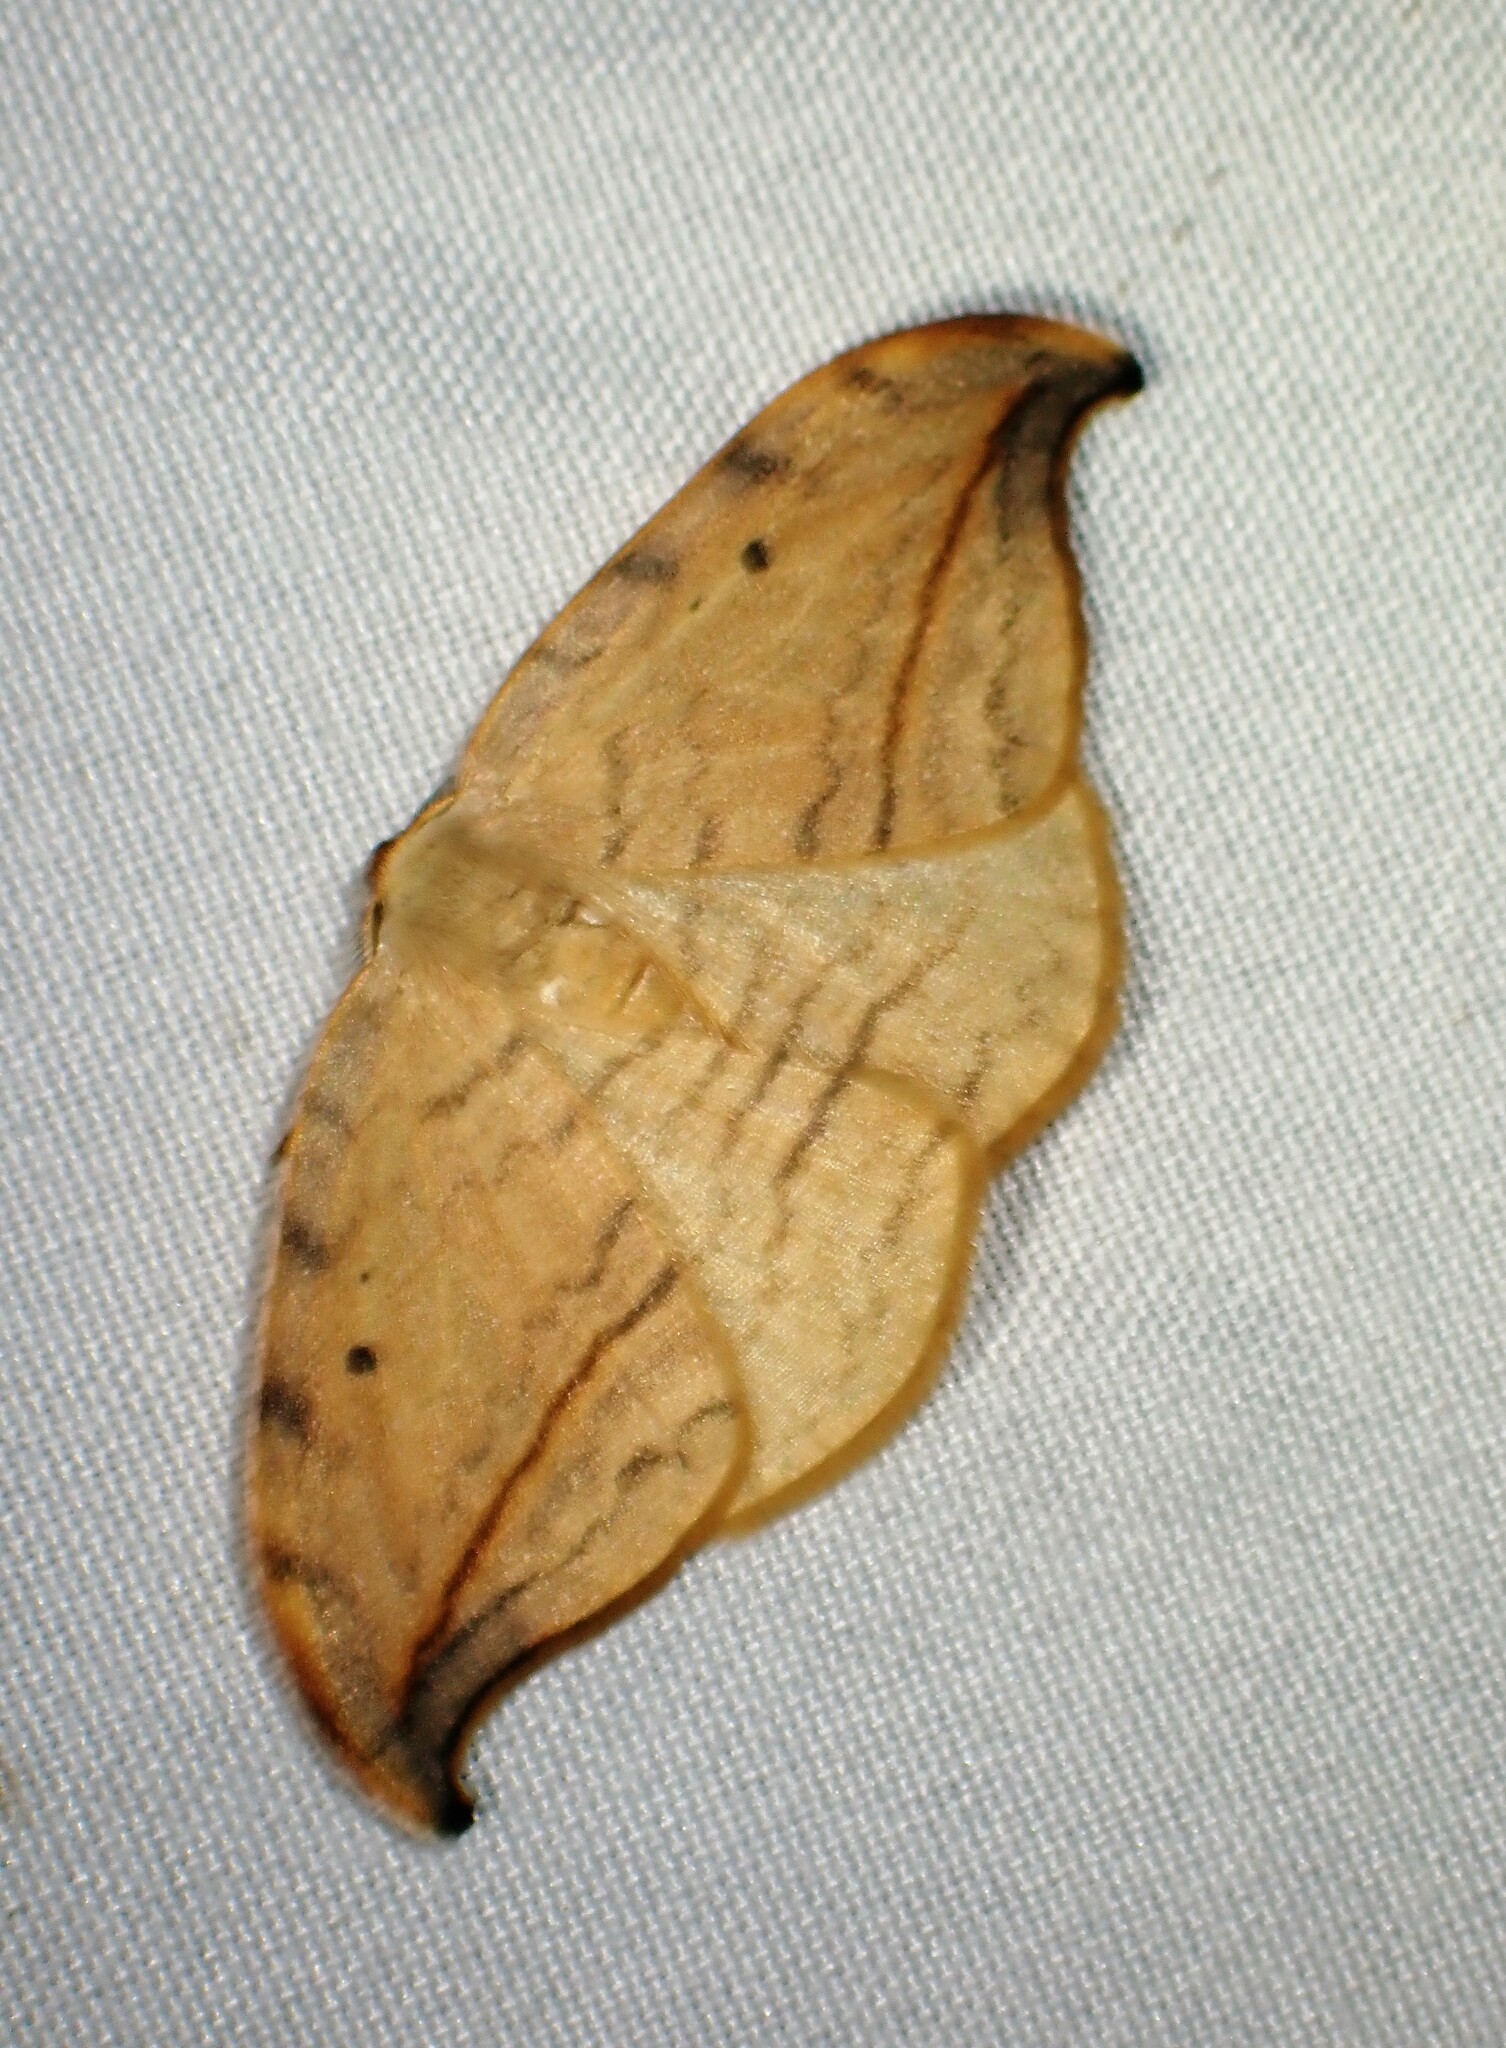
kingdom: Animalia
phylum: Arthropoda
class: Insecta
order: Lepidoptera
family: Drepanidae
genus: Drepana
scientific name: Drepana arcuata
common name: Arched hooktip moth
